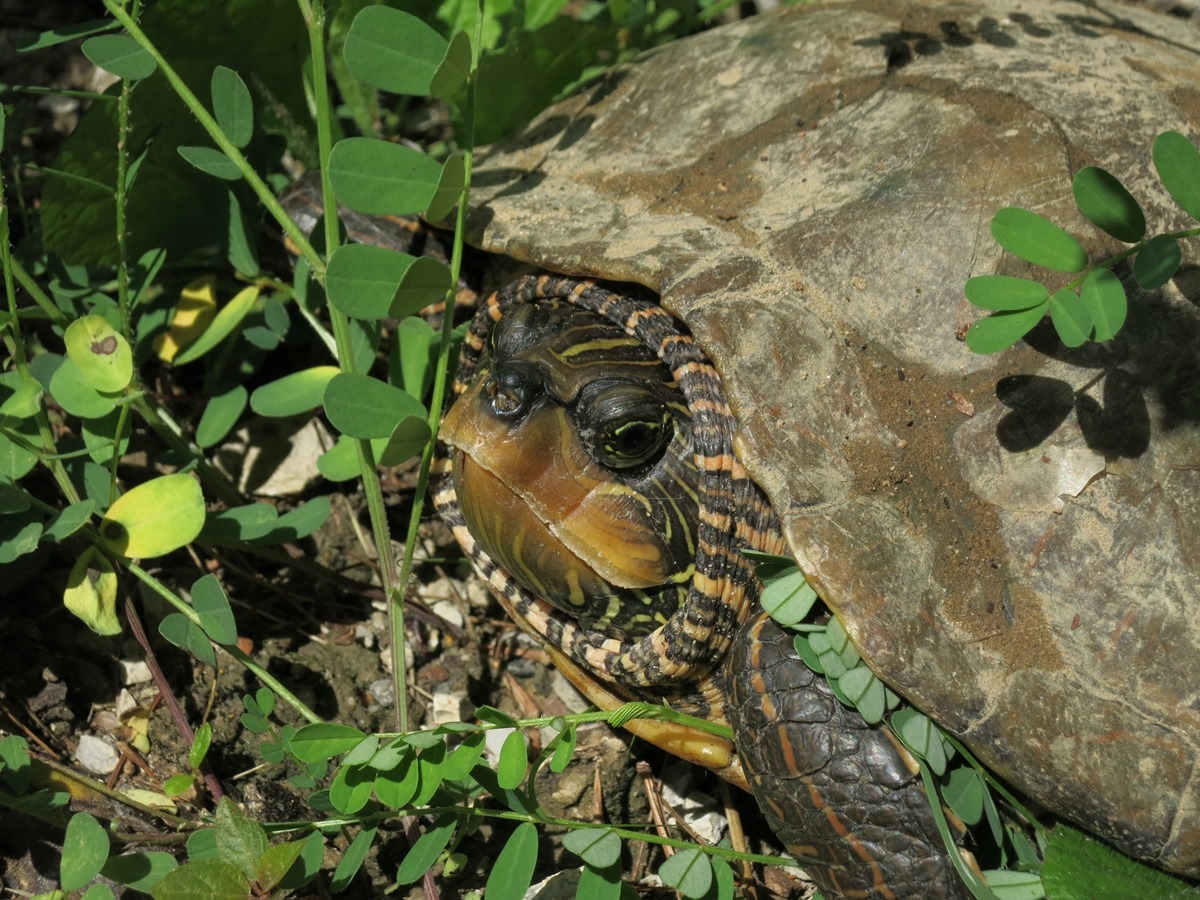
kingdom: Animalia
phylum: Chordata
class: Testudines
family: Emydidae
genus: Graptemys
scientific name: Graptemys geographica
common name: Common map turtle
